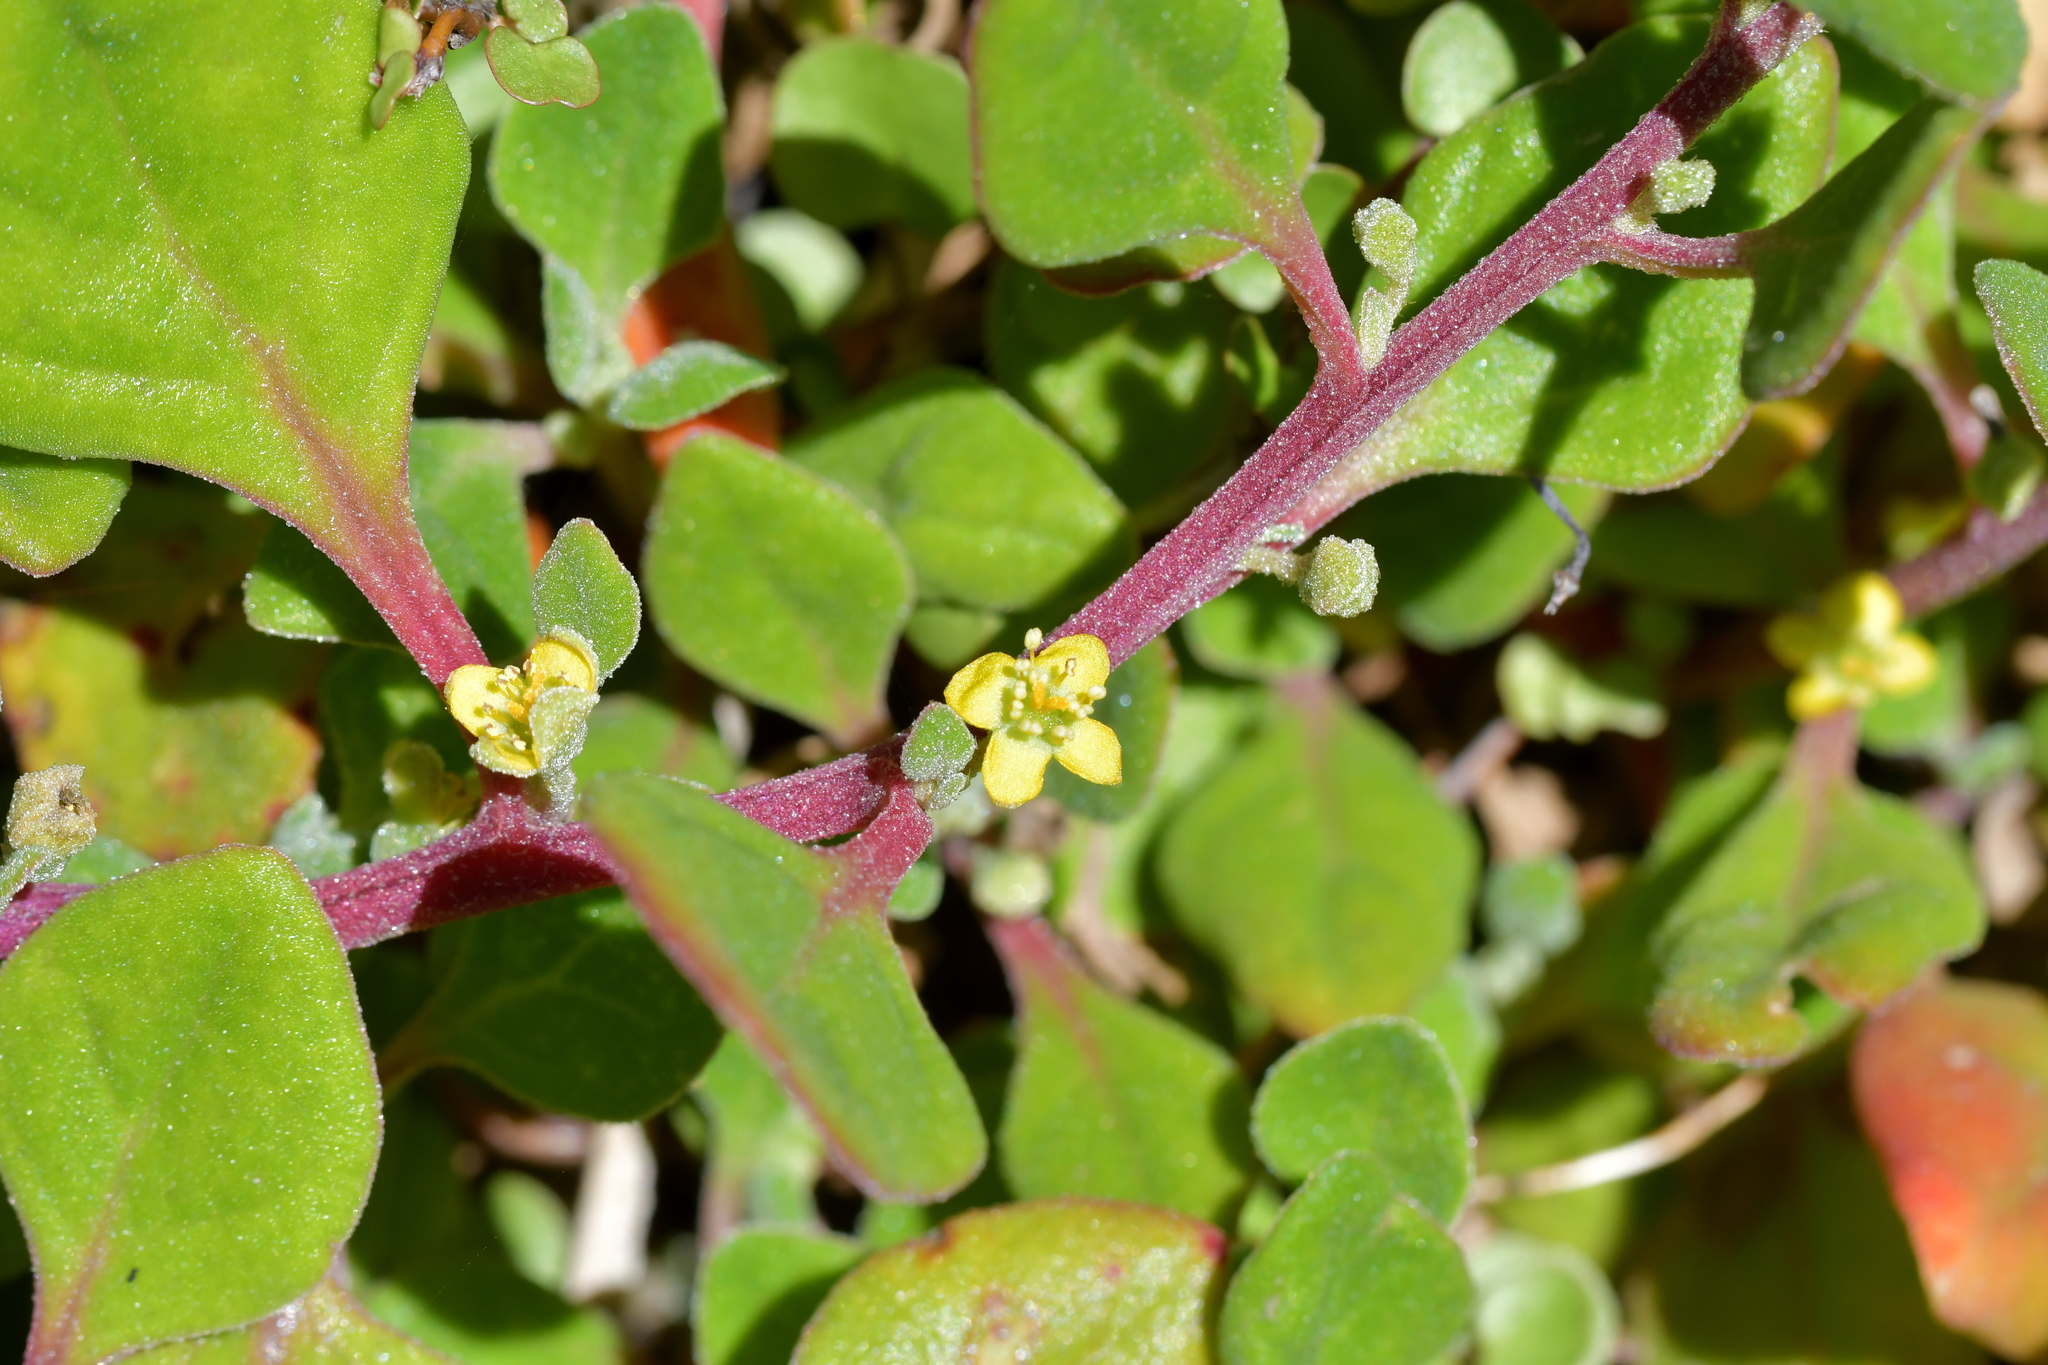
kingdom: Plantae
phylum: Tracheophyta
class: Magnoliopsida
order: Caryophyllales
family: Aizoaceae
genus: Tetragonia
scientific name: Tetragonia implexicoma
